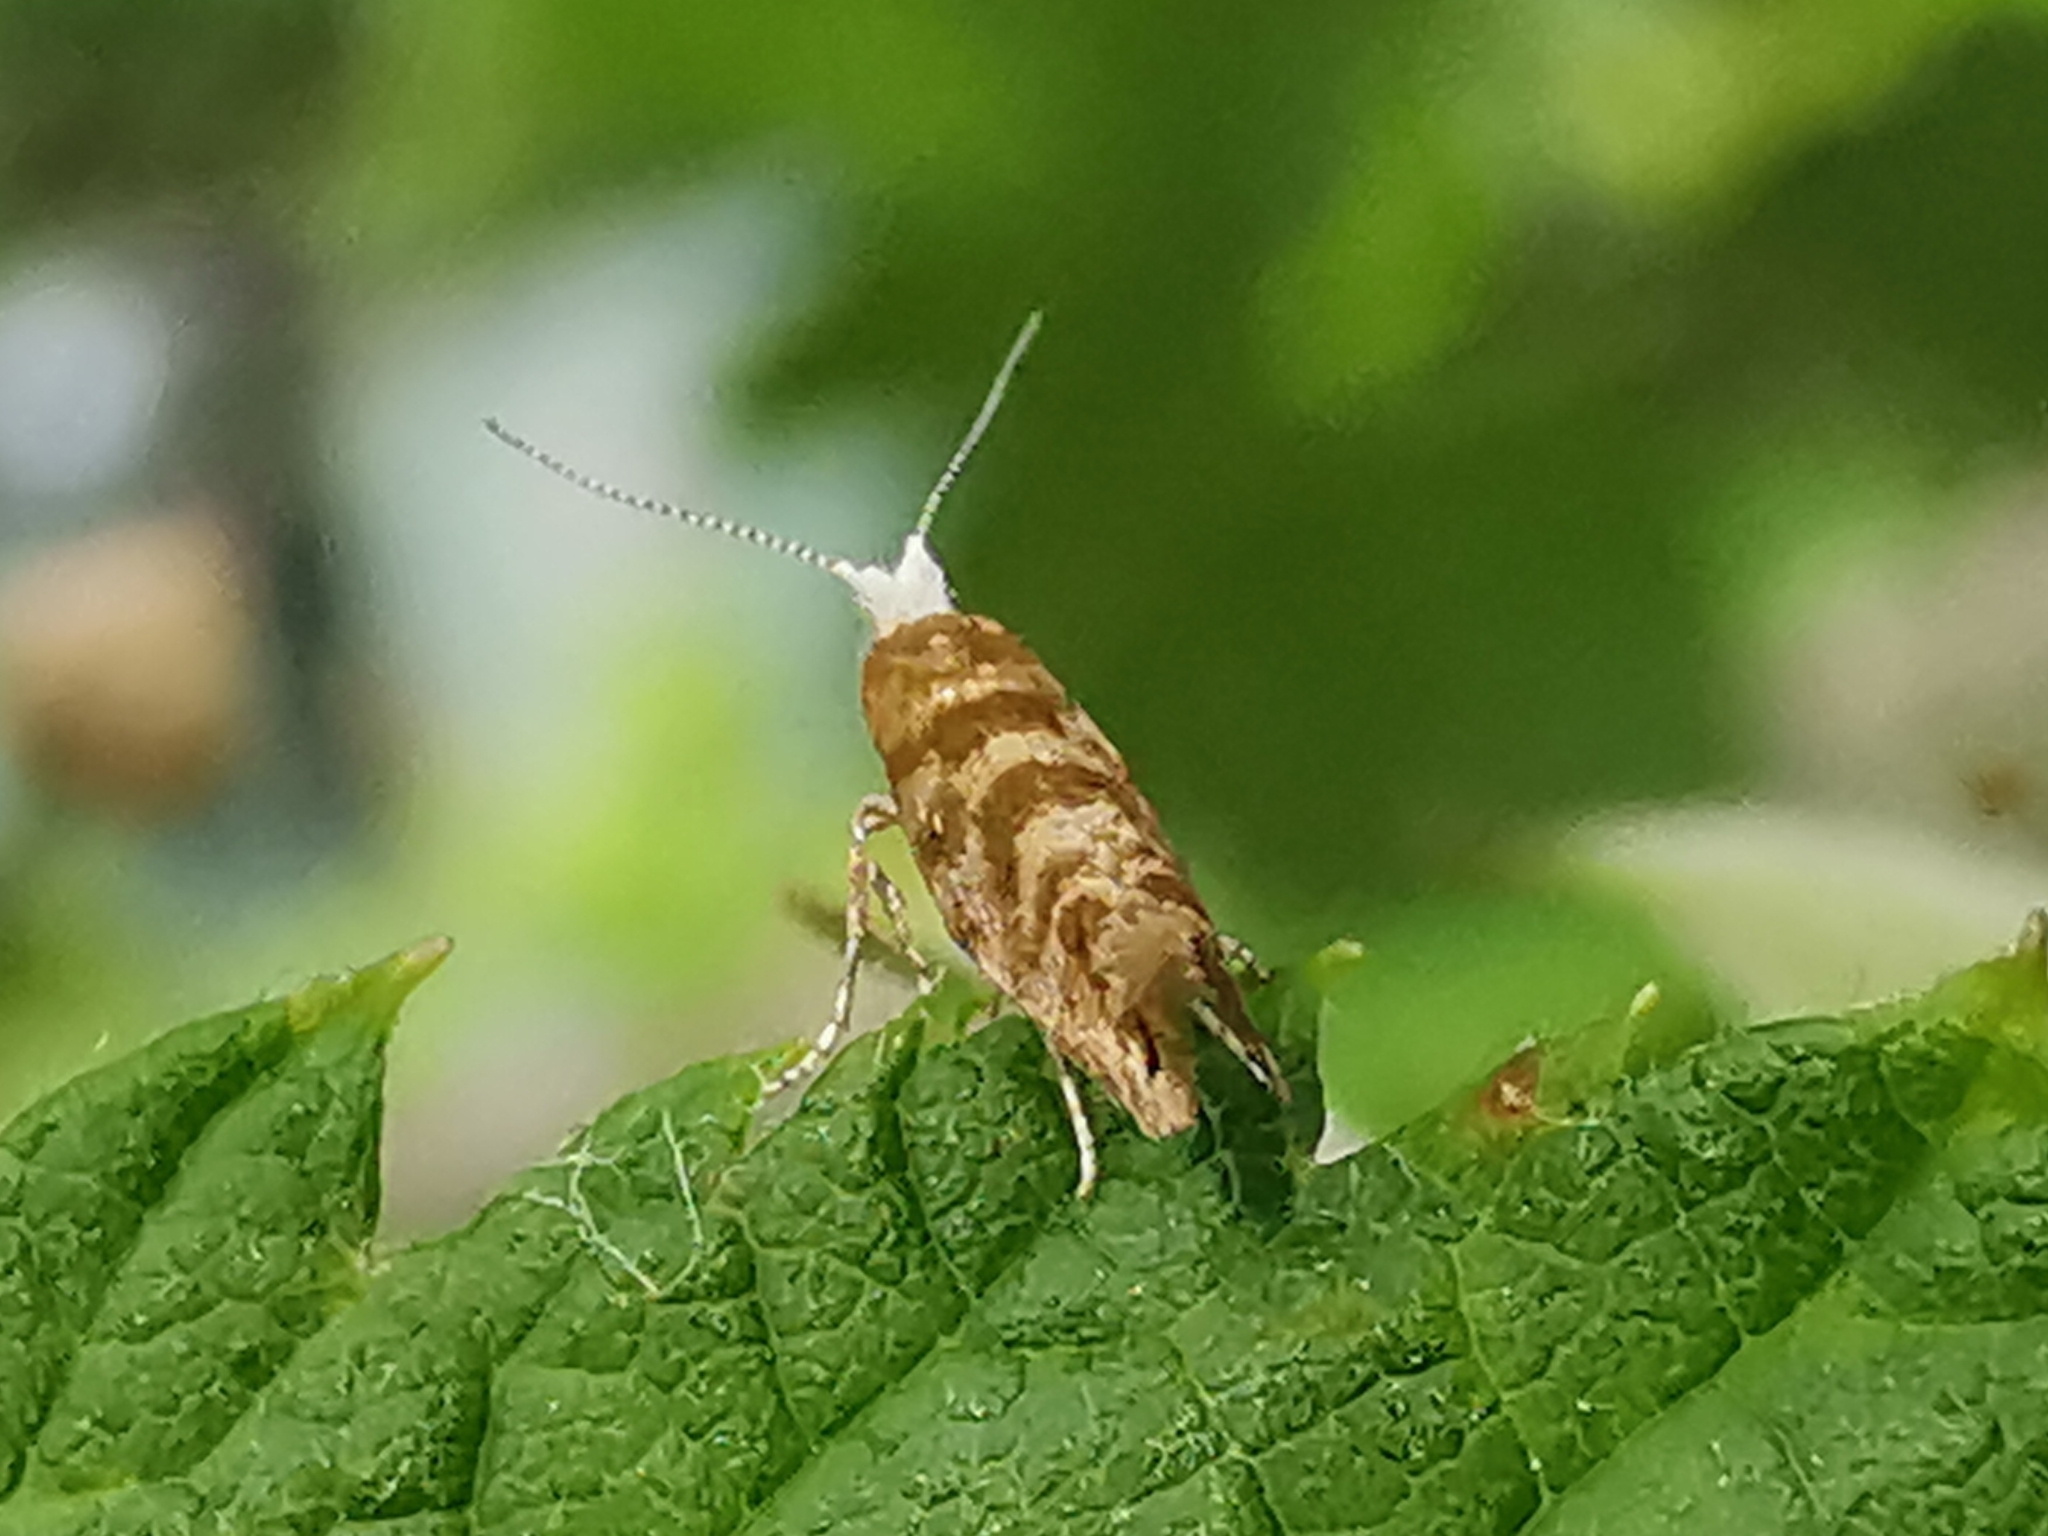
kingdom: Animalia
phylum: Arthropoda
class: Insecta
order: Lepidoptera
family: Argyresthiidae
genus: Argyresthia
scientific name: Argyresthia cupressella
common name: Cypress tip moth
